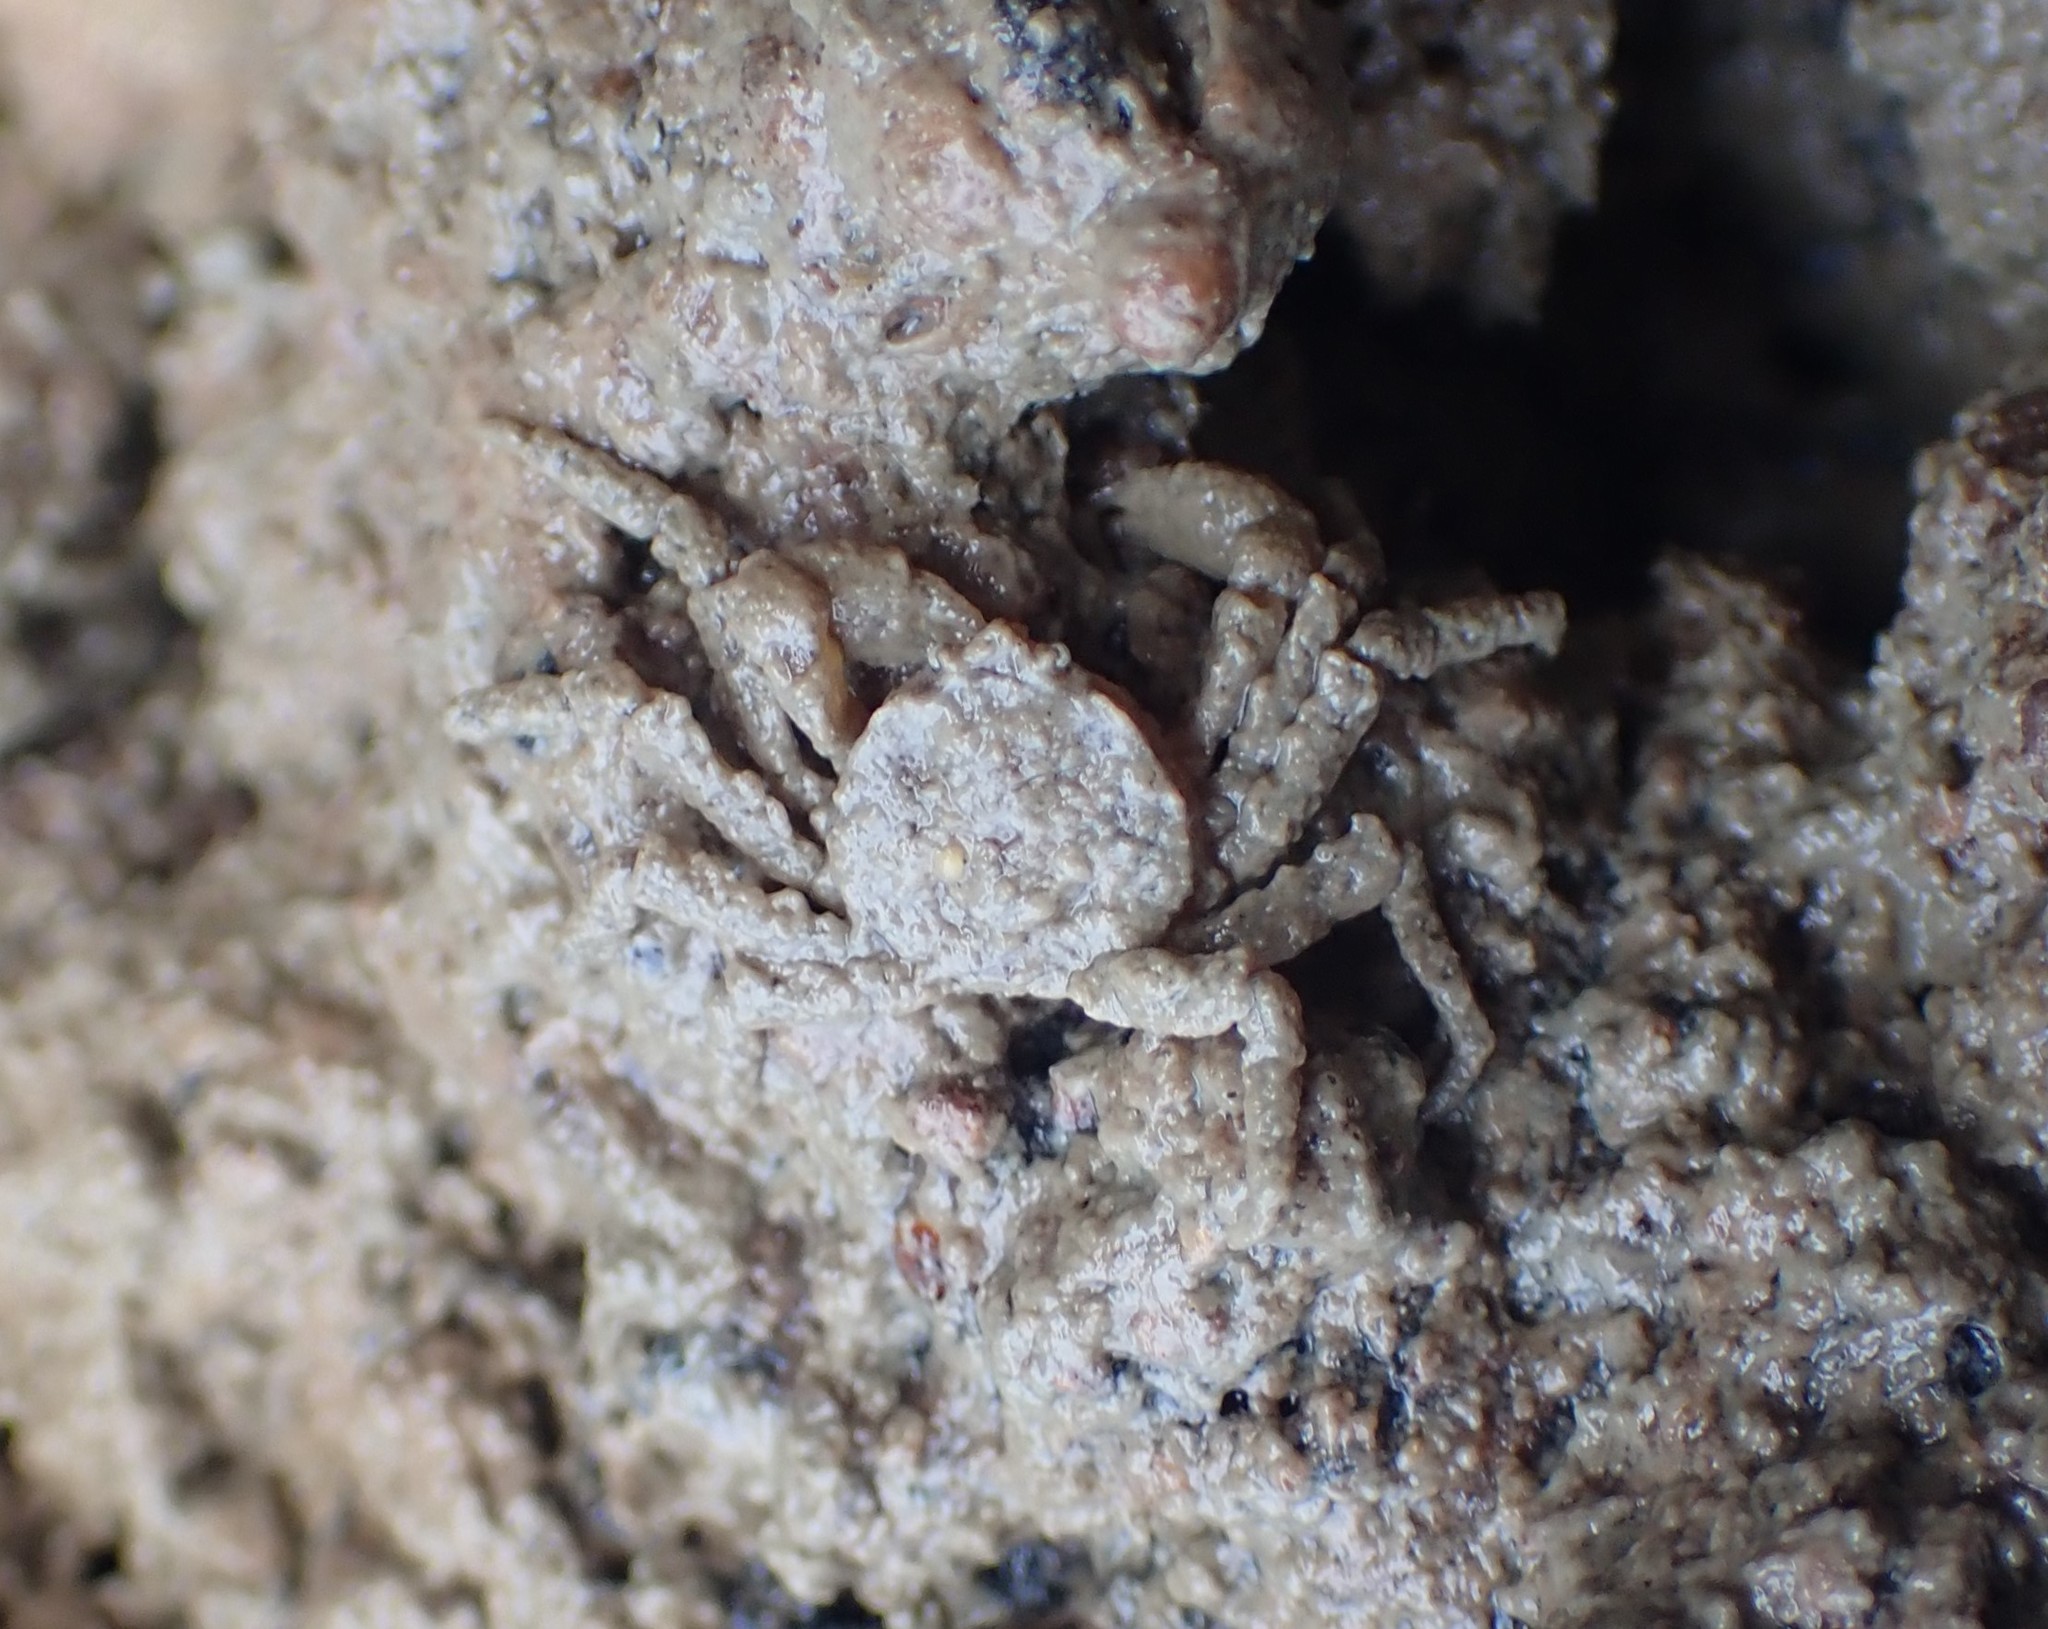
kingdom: Animalia
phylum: Arthropoda
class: Malacostraca
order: Decapoda
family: Hymenosomatidae
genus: Neohymenicus
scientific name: Neohymenicus pubescens
